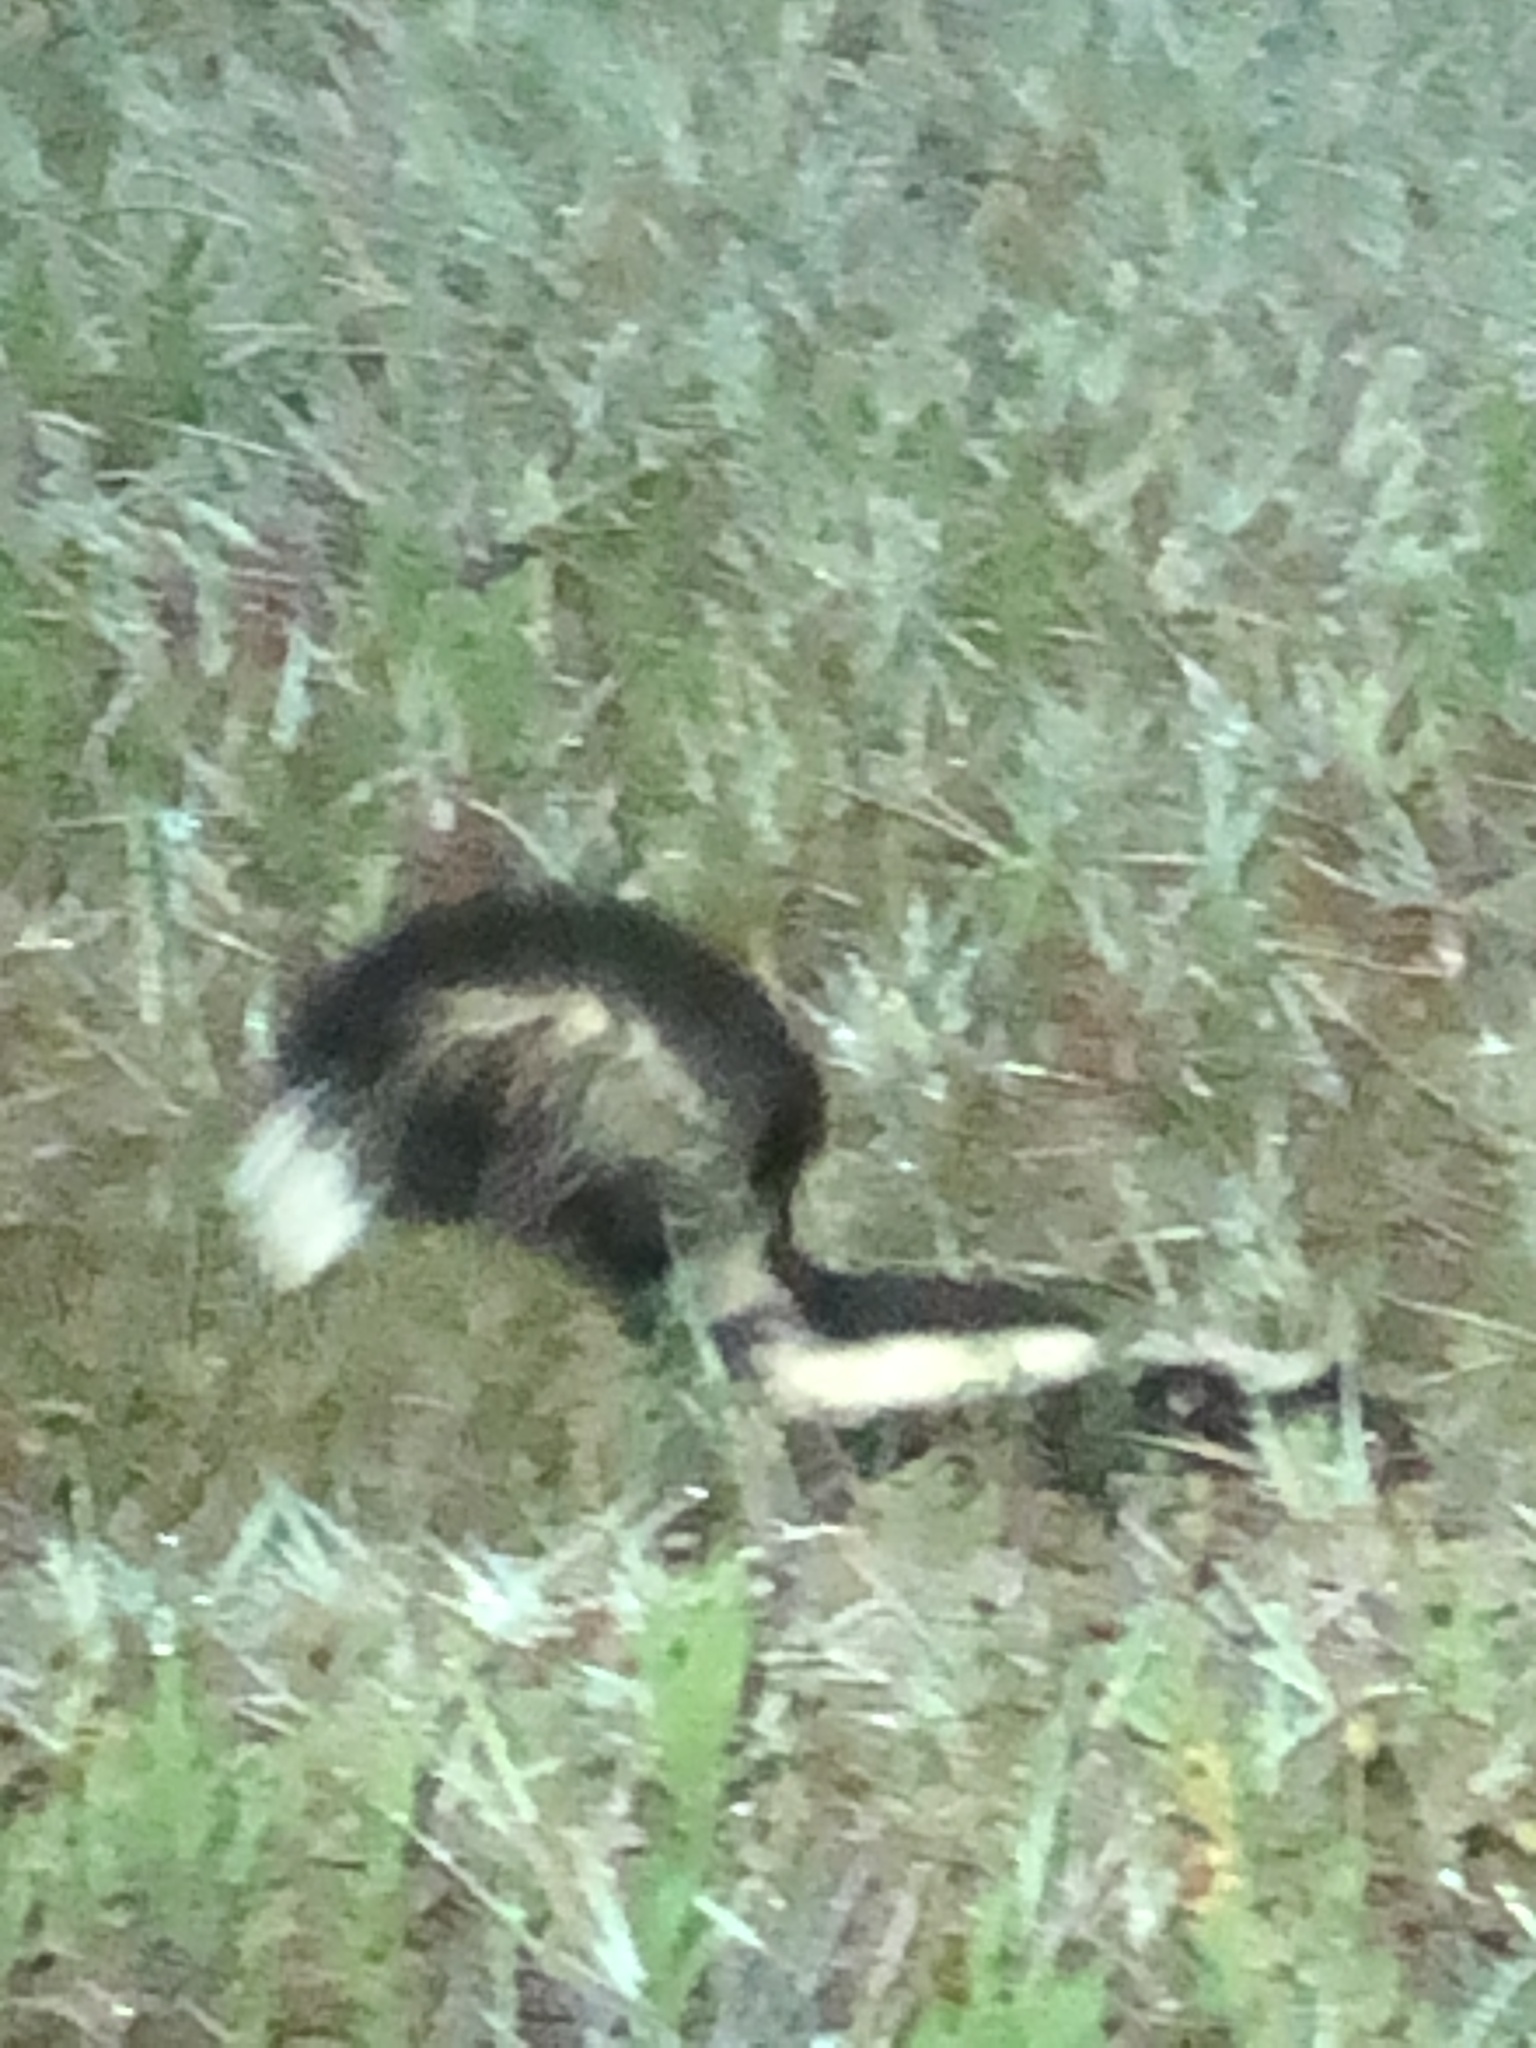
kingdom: Animalia
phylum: Chordata
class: Mammalia
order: Carnivora
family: Mephitidae
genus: Mephitis
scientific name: Mephitis mephitis
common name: Striped skunk
